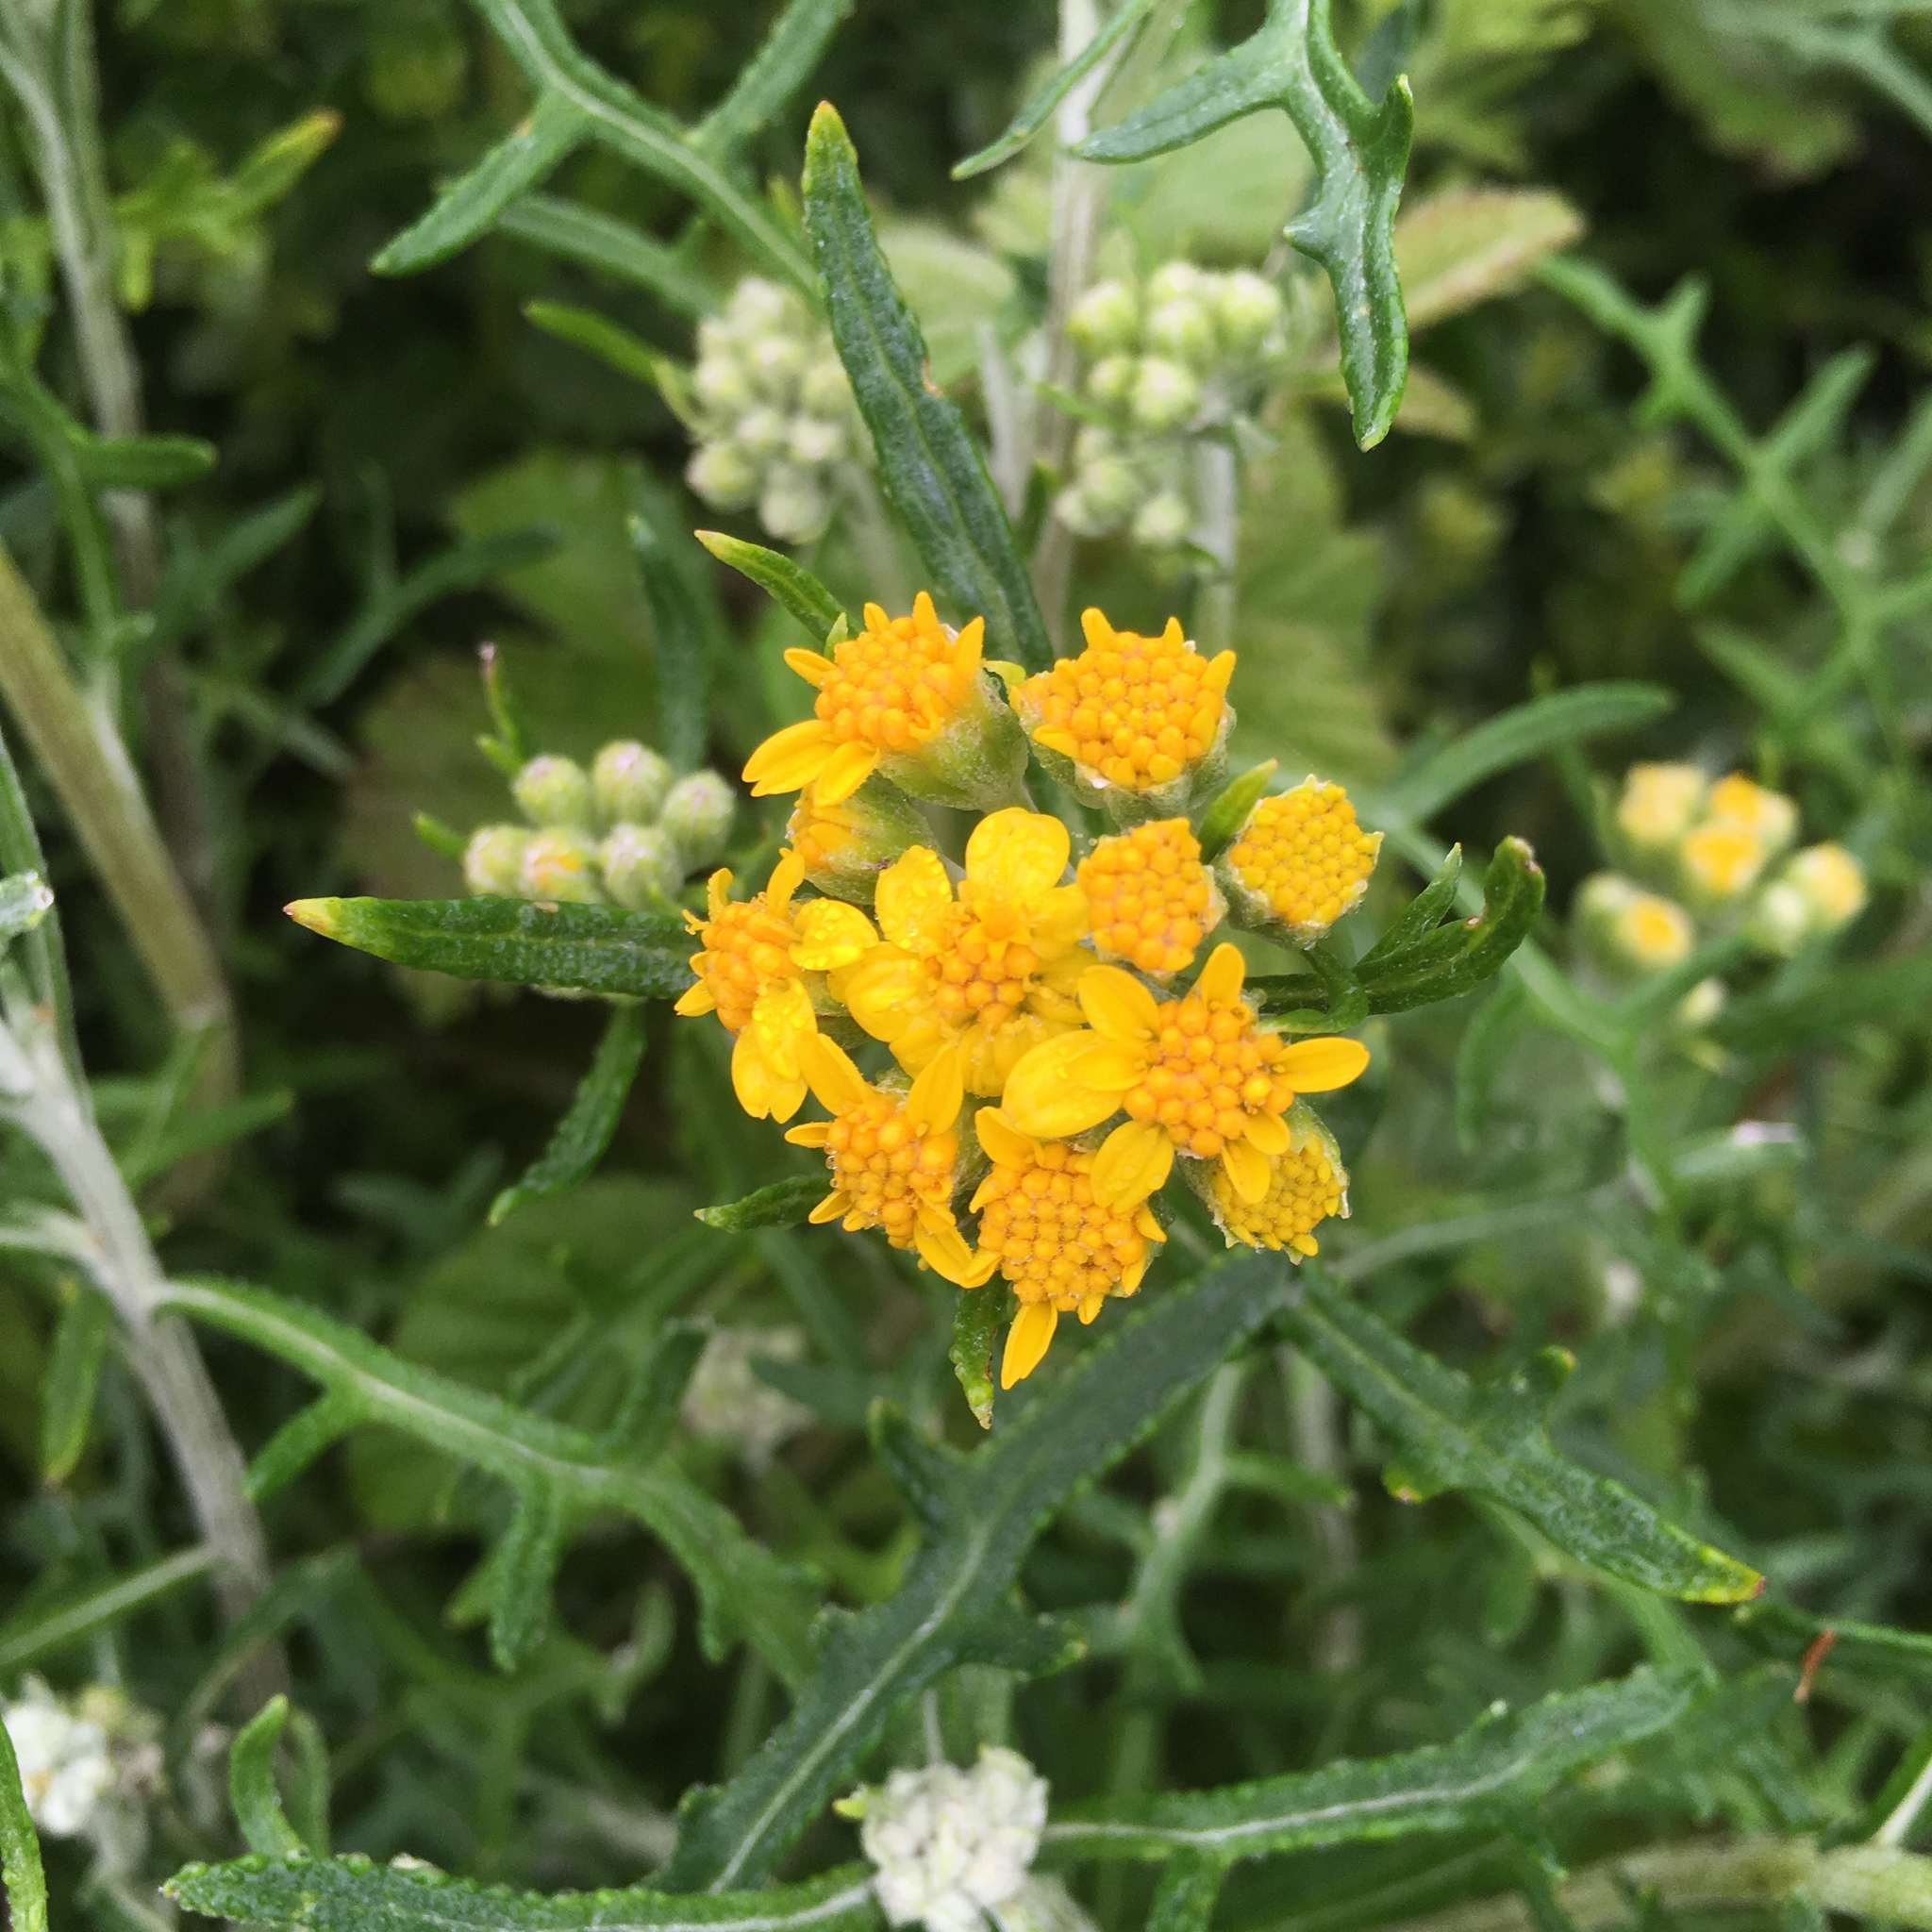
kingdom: Plantae
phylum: Tracheophyta
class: Magnoliopsida
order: Asterales
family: Asteraceae
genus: Eriophyllum
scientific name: Eriophyllum staechadifolium
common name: Lizardtail
